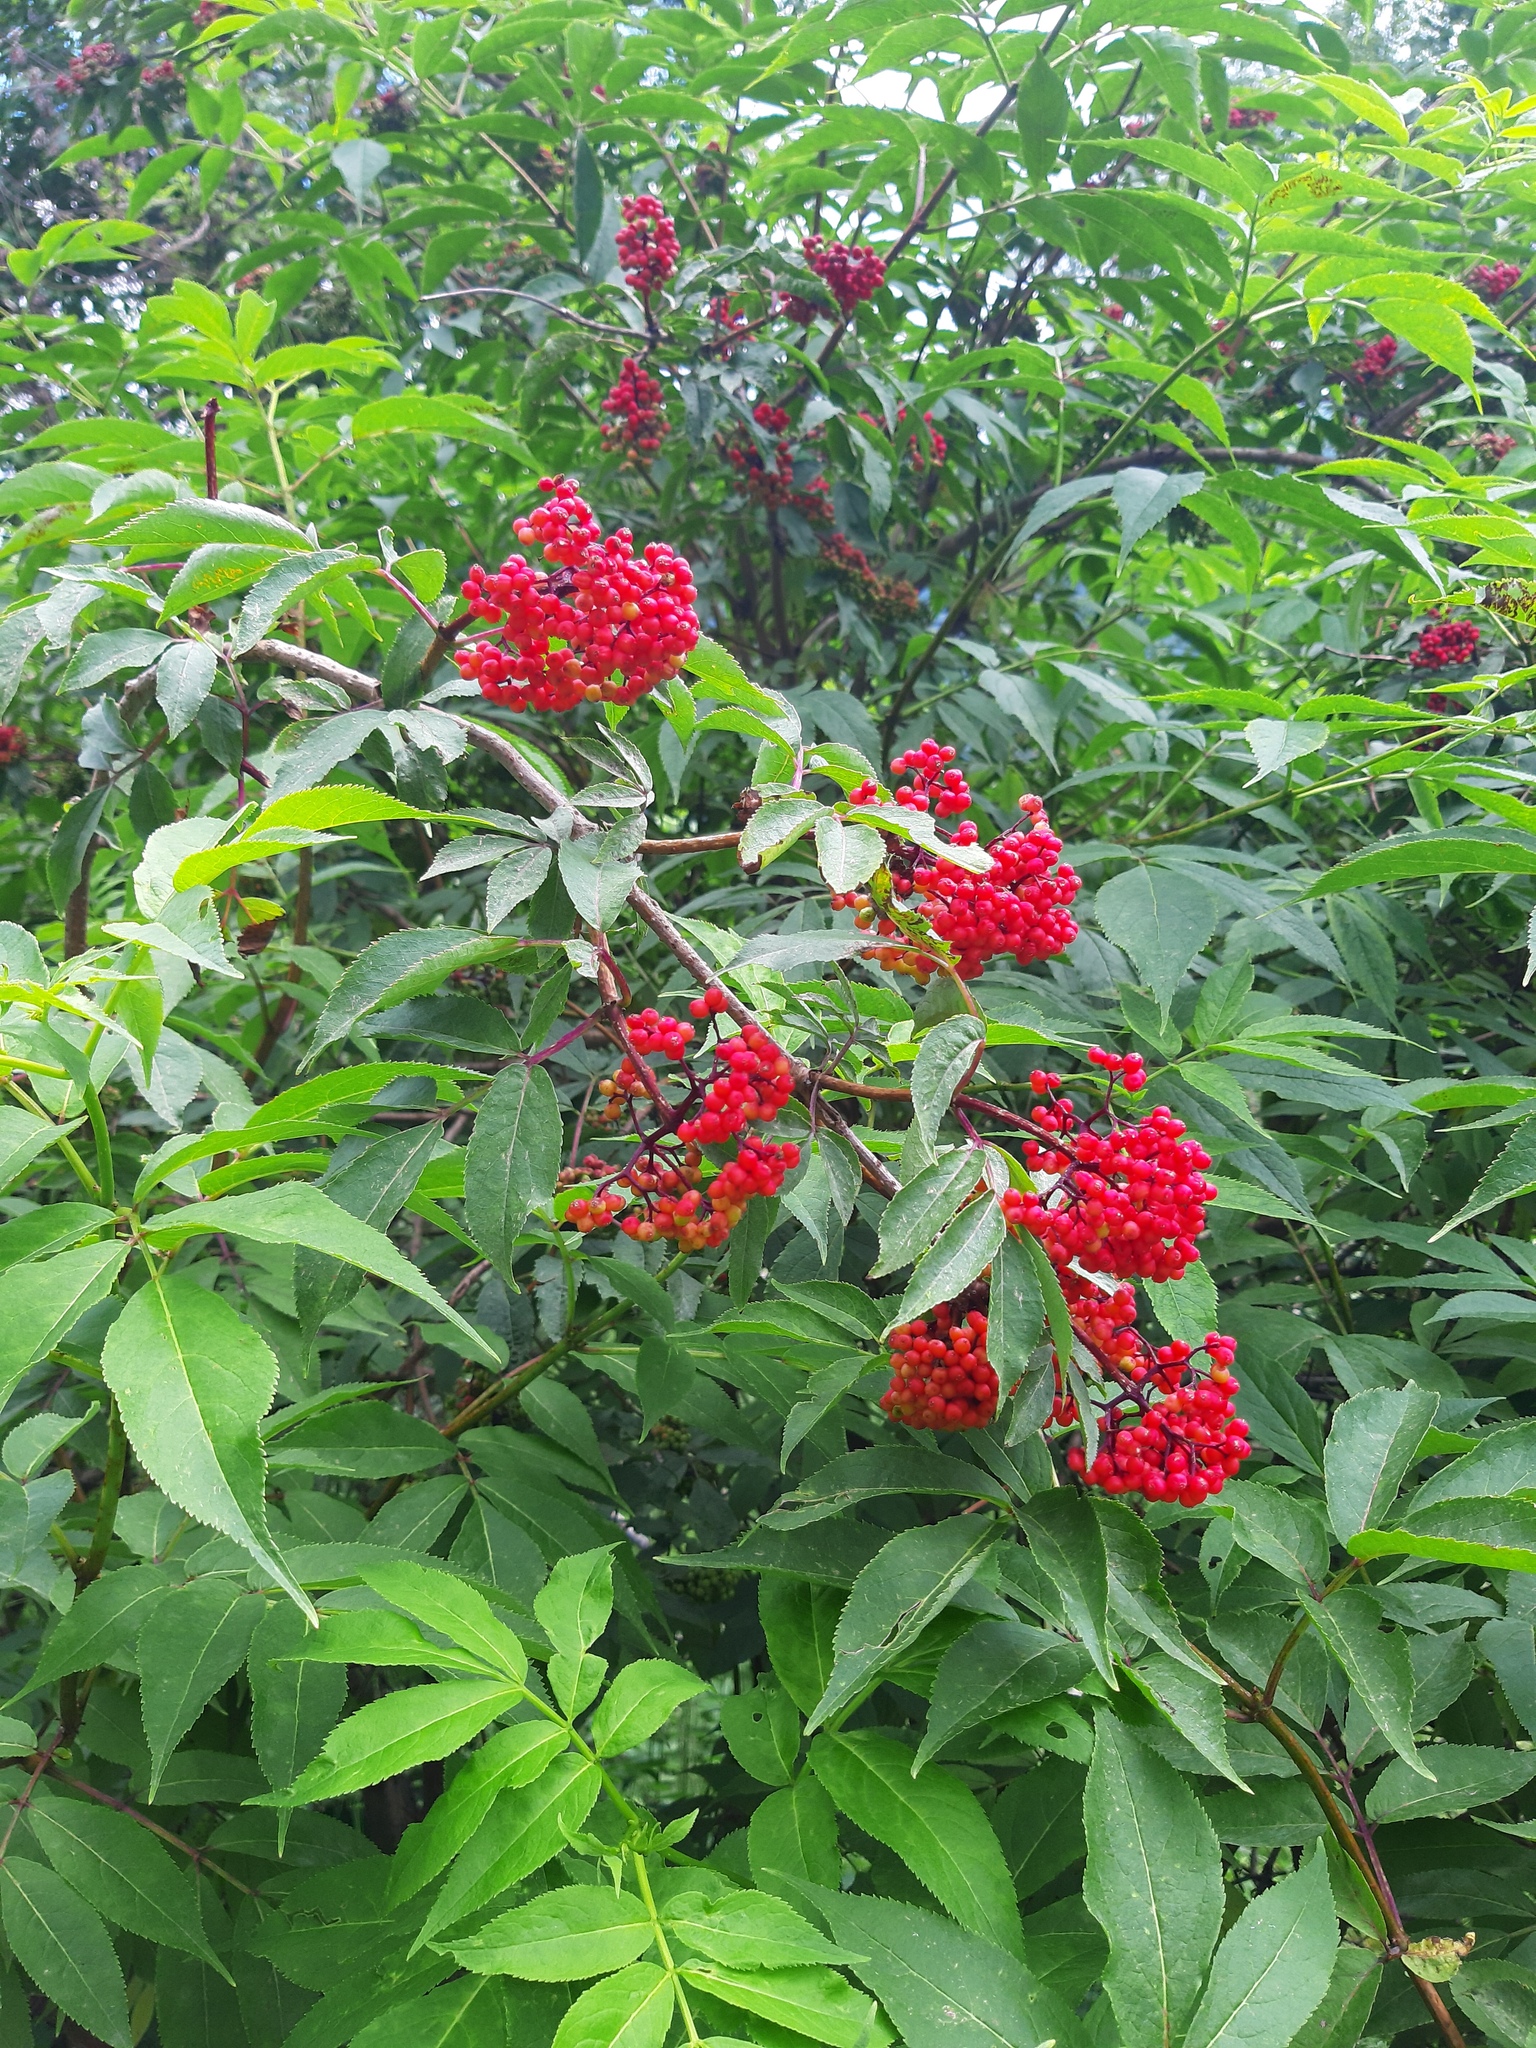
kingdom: Plantae
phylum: Tracheophyta
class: Magnoliopsida
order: Dipsacales
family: Viburnaceae
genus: Sambucus
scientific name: Sambucus racemosa
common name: Red-berried elder
